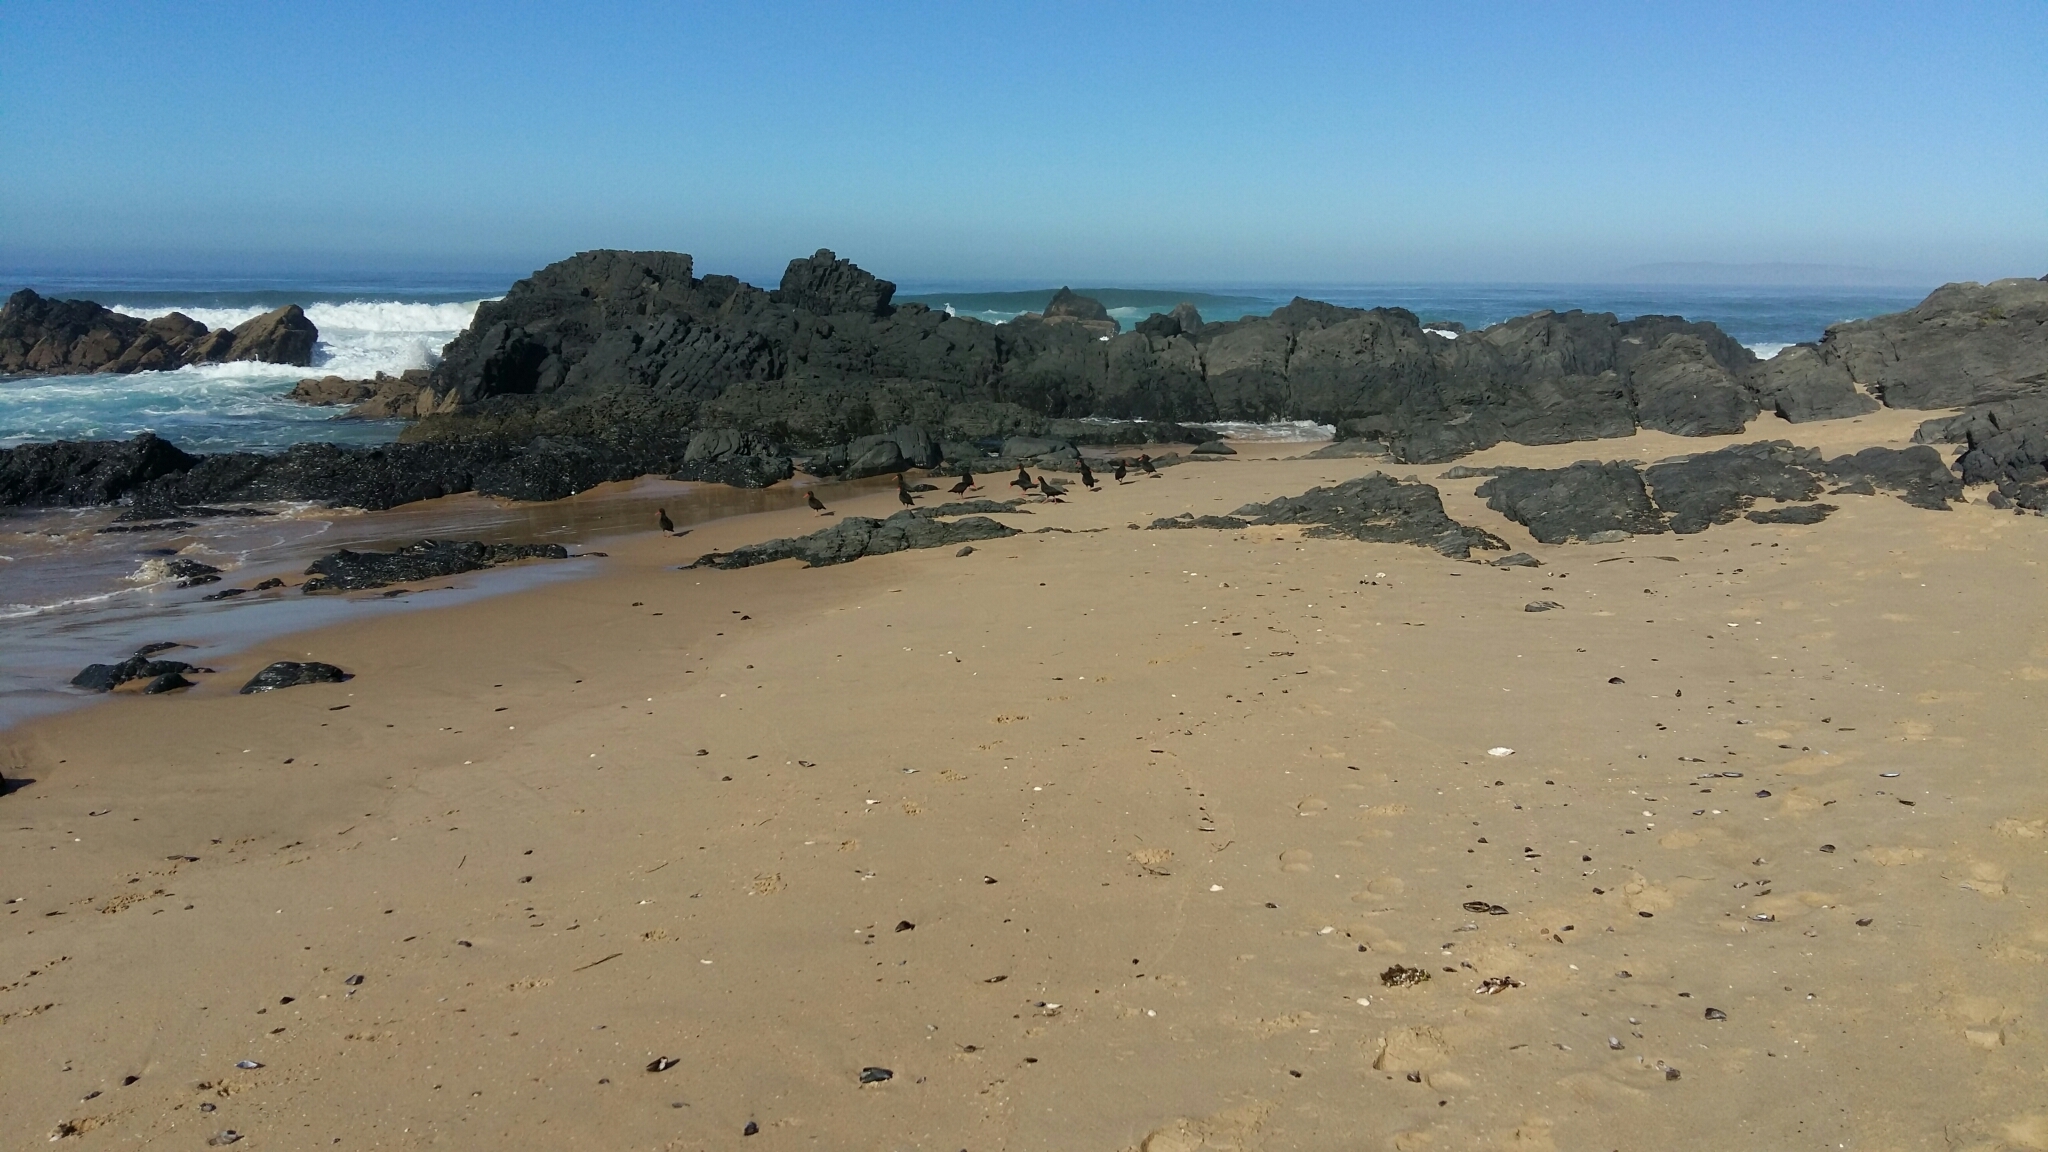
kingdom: Animalia
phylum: Chordata
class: Aves
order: Charadriiformes
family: Haematopodidae
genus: Haematopus
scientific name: Haematopus moquini
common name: African oystercatcher
